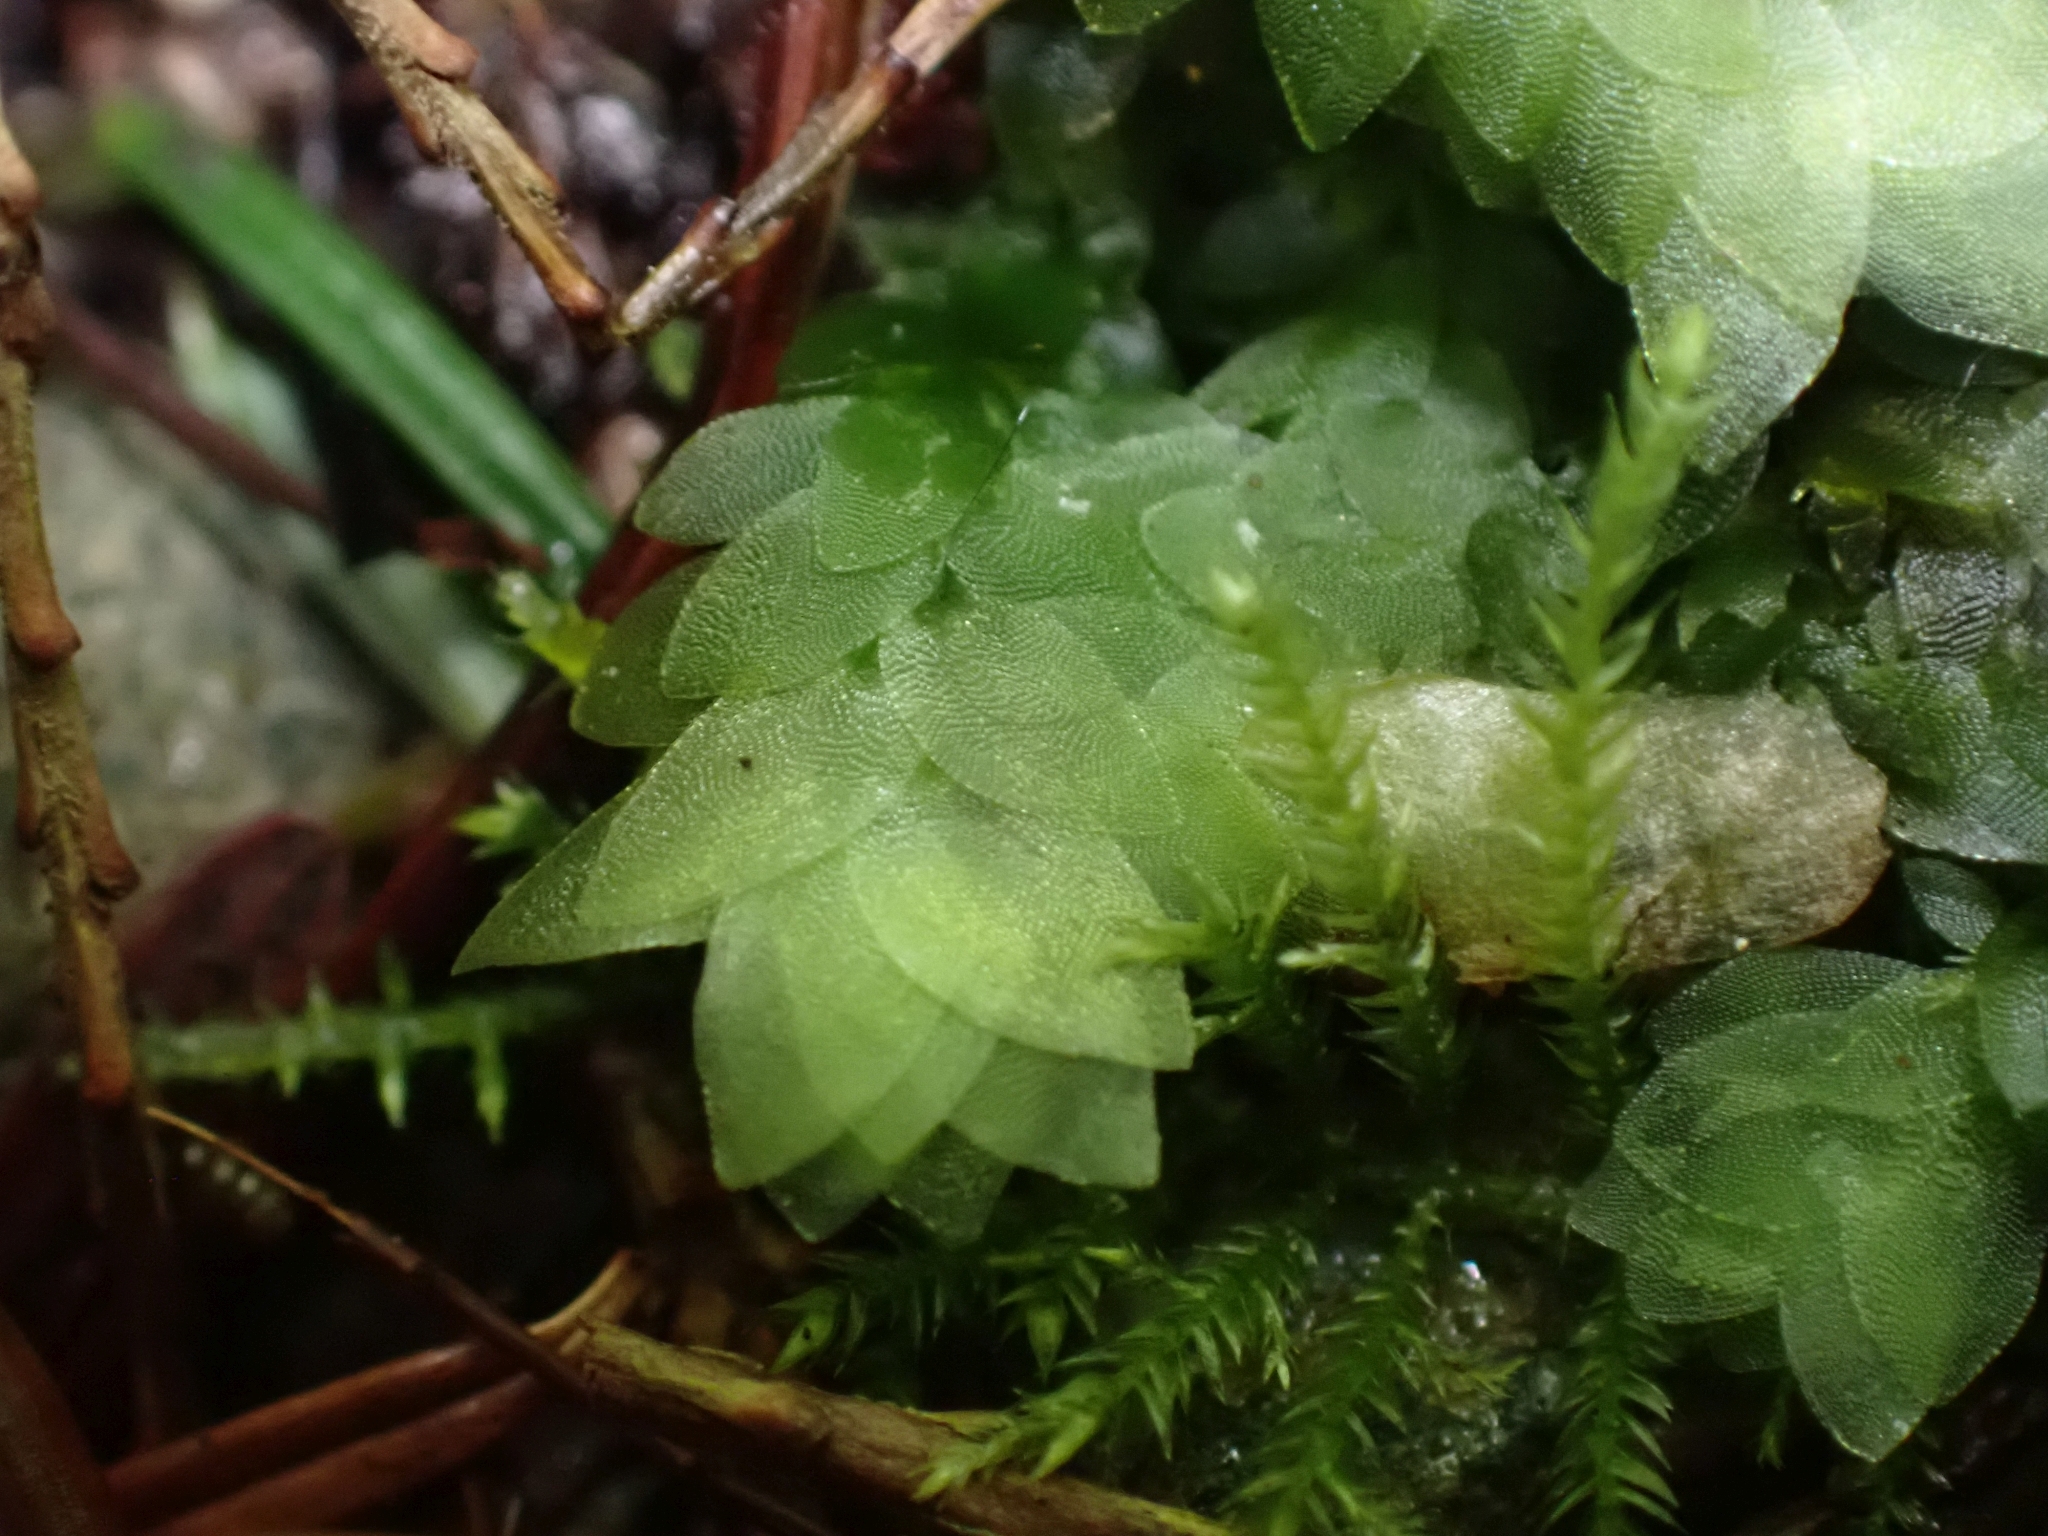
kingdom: Plantae
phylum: Bryophyta
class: Bryopsida
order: Hookeriales
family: Hookeriaceae
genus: Hookeria
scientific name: Hookeria lucens
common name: Shining hookeria
